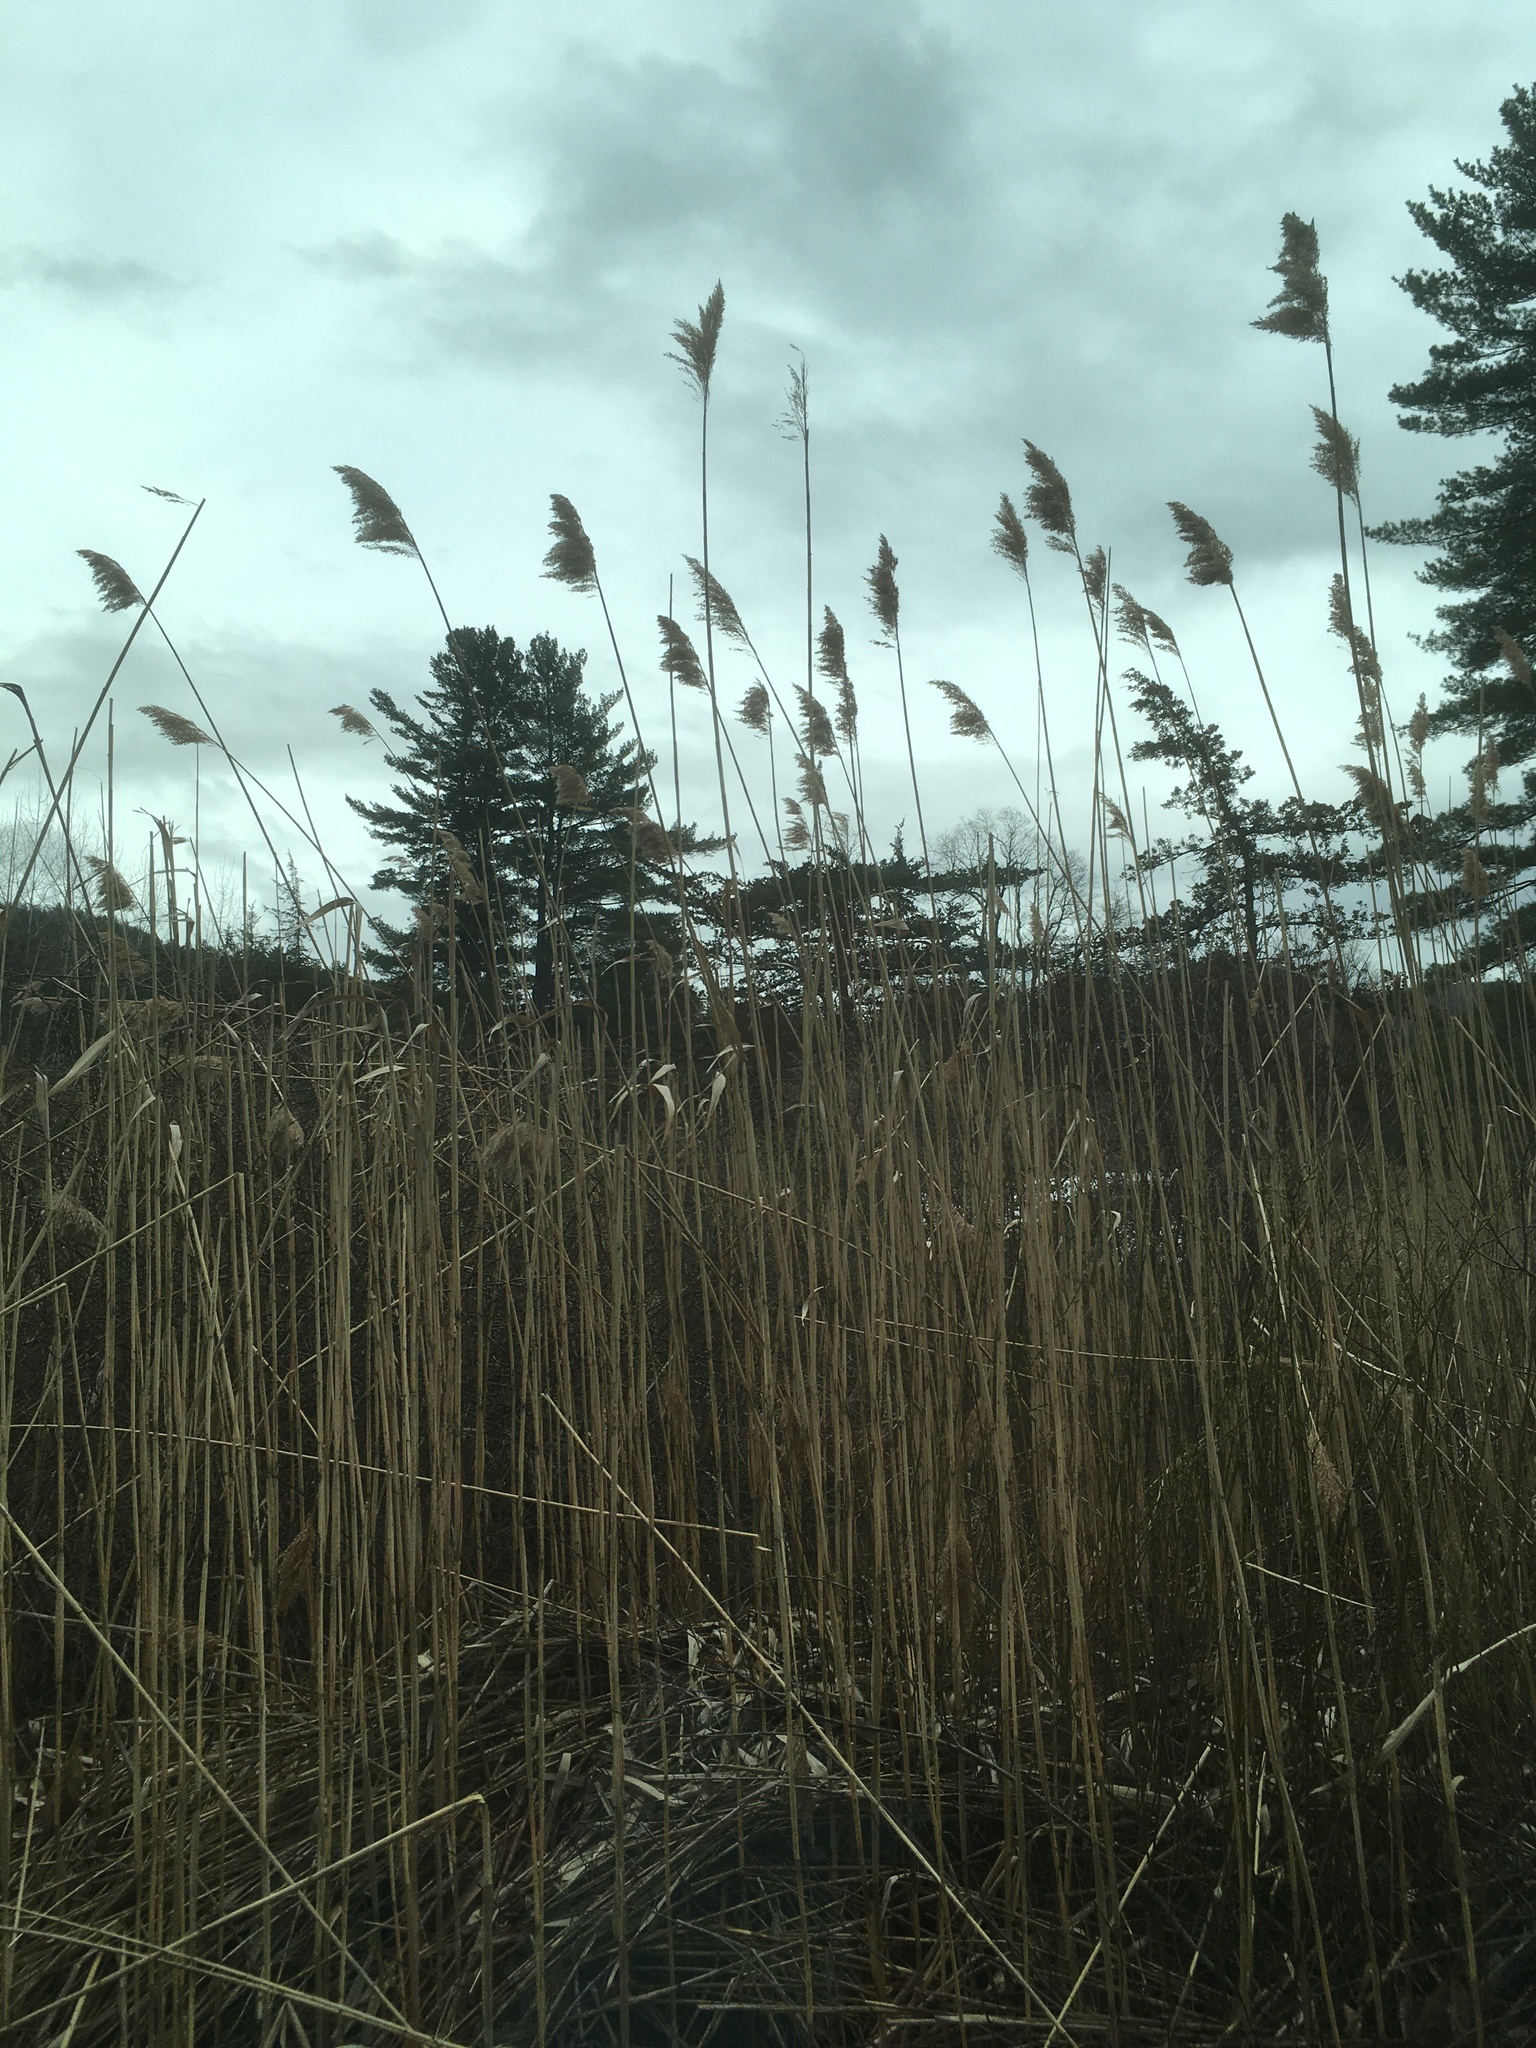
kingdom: Plantae
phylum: Tracheophyta
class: Liliopsida
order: Poales
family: Poaceae
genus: Phragmites
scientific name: Phragmites australis
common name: Common reed
